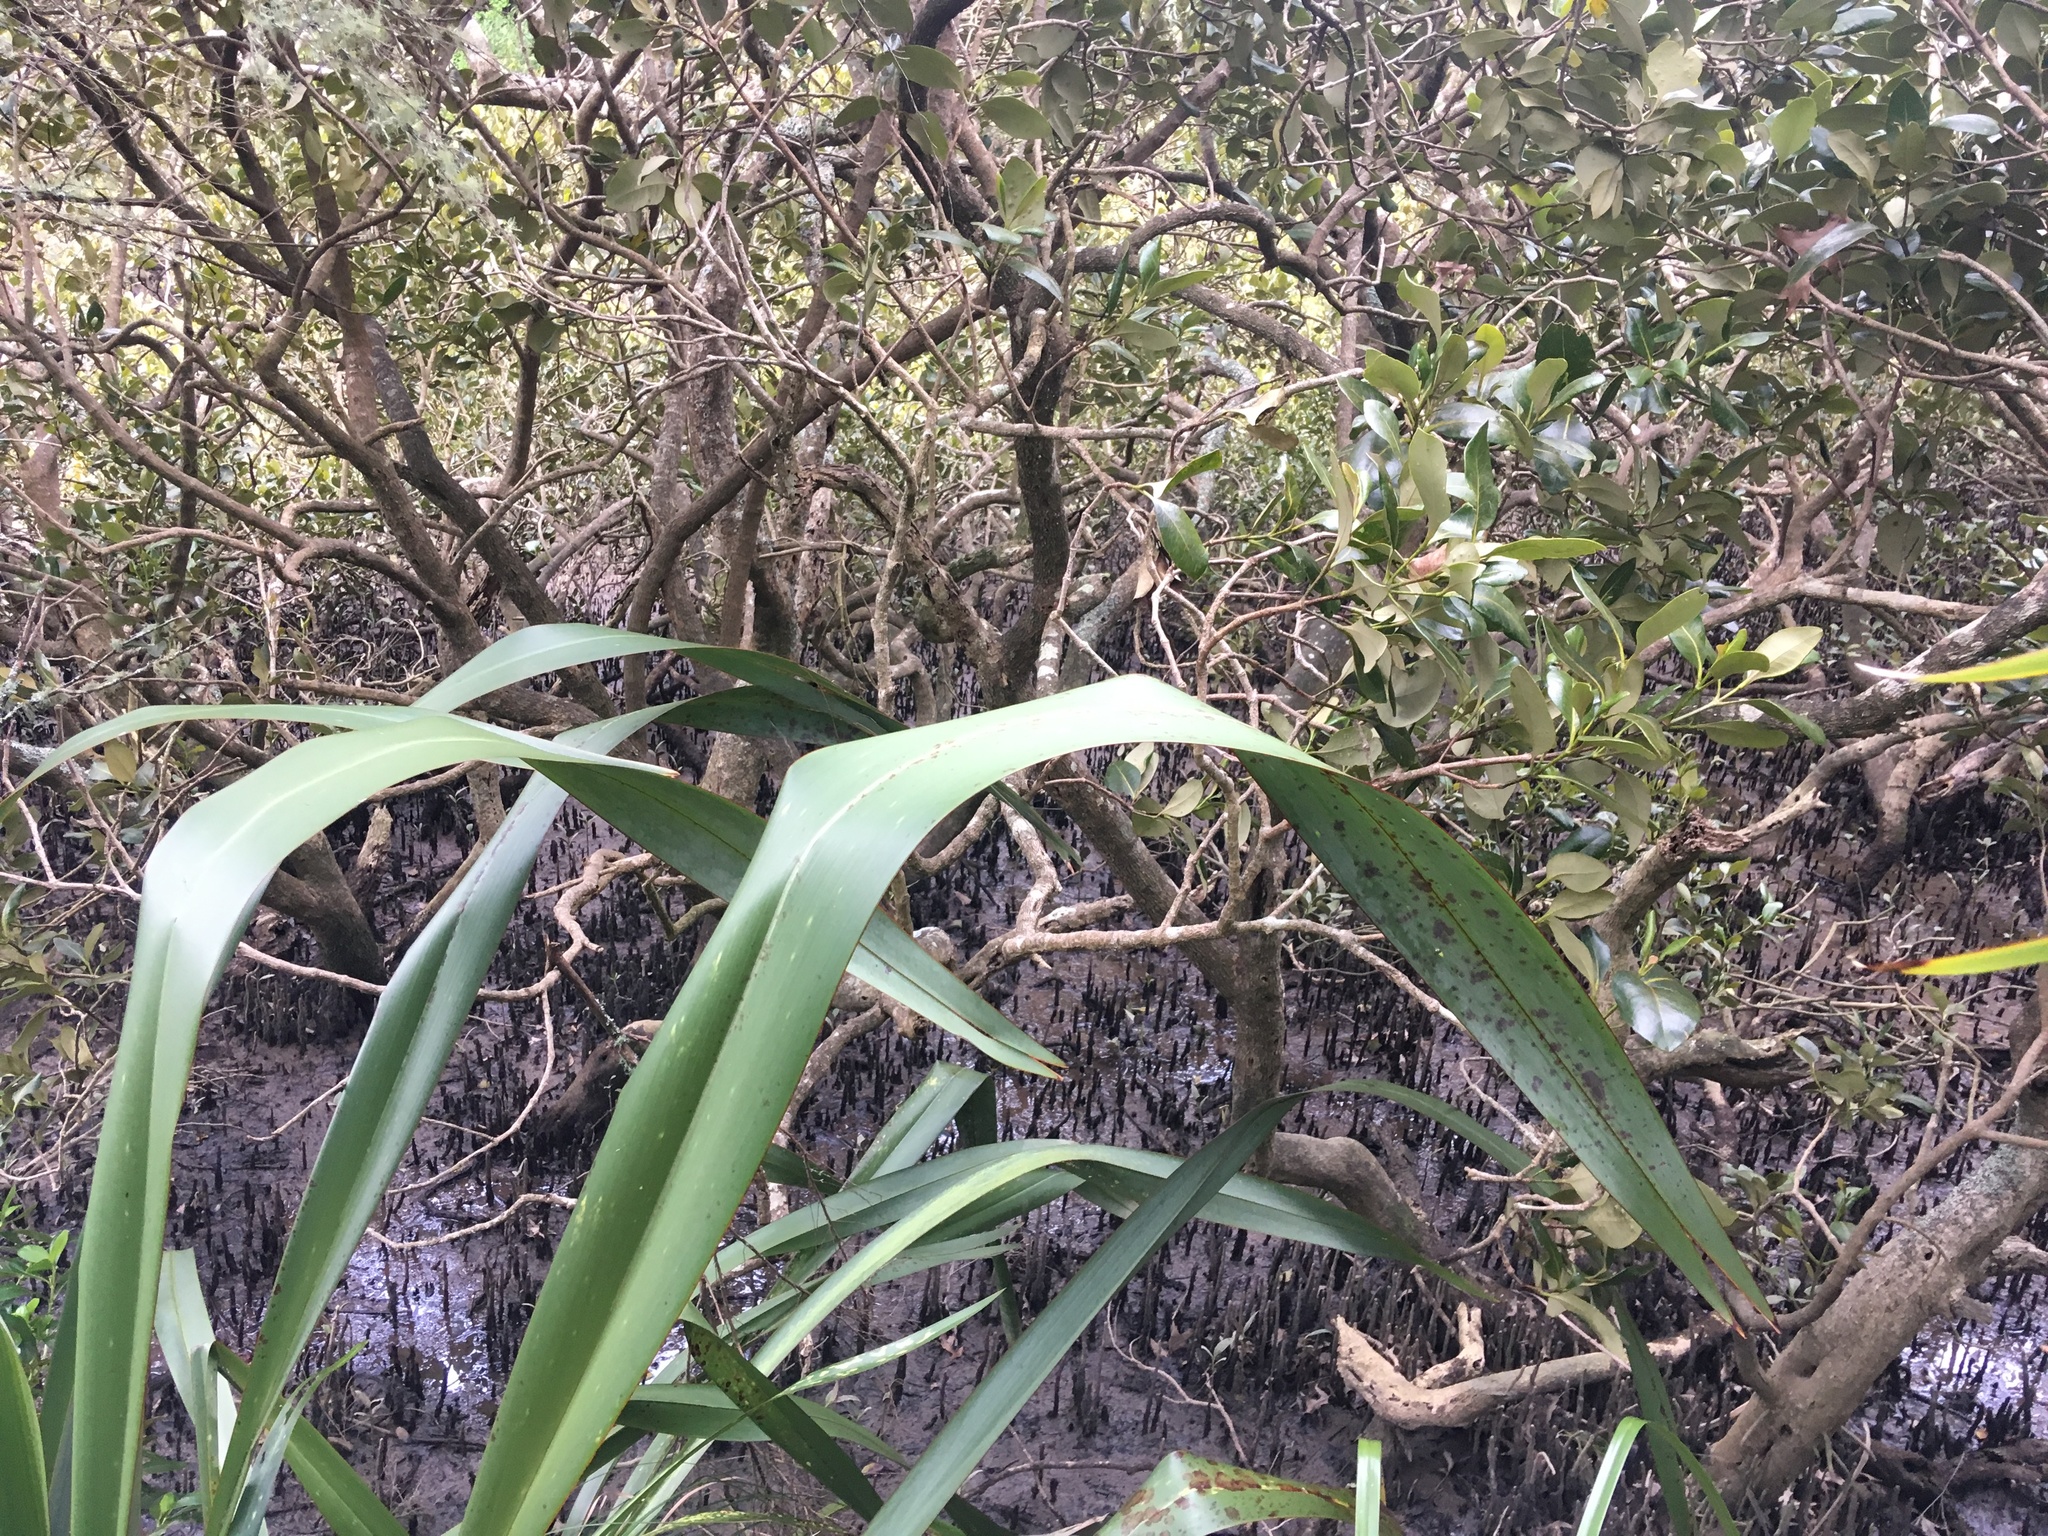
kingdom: Plantae
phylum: Tracheophyta
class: Liliopsida
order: Asparagales
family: Asphodelaceae
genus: Phormium
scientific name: Phormium tenax
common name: New zealand flax
